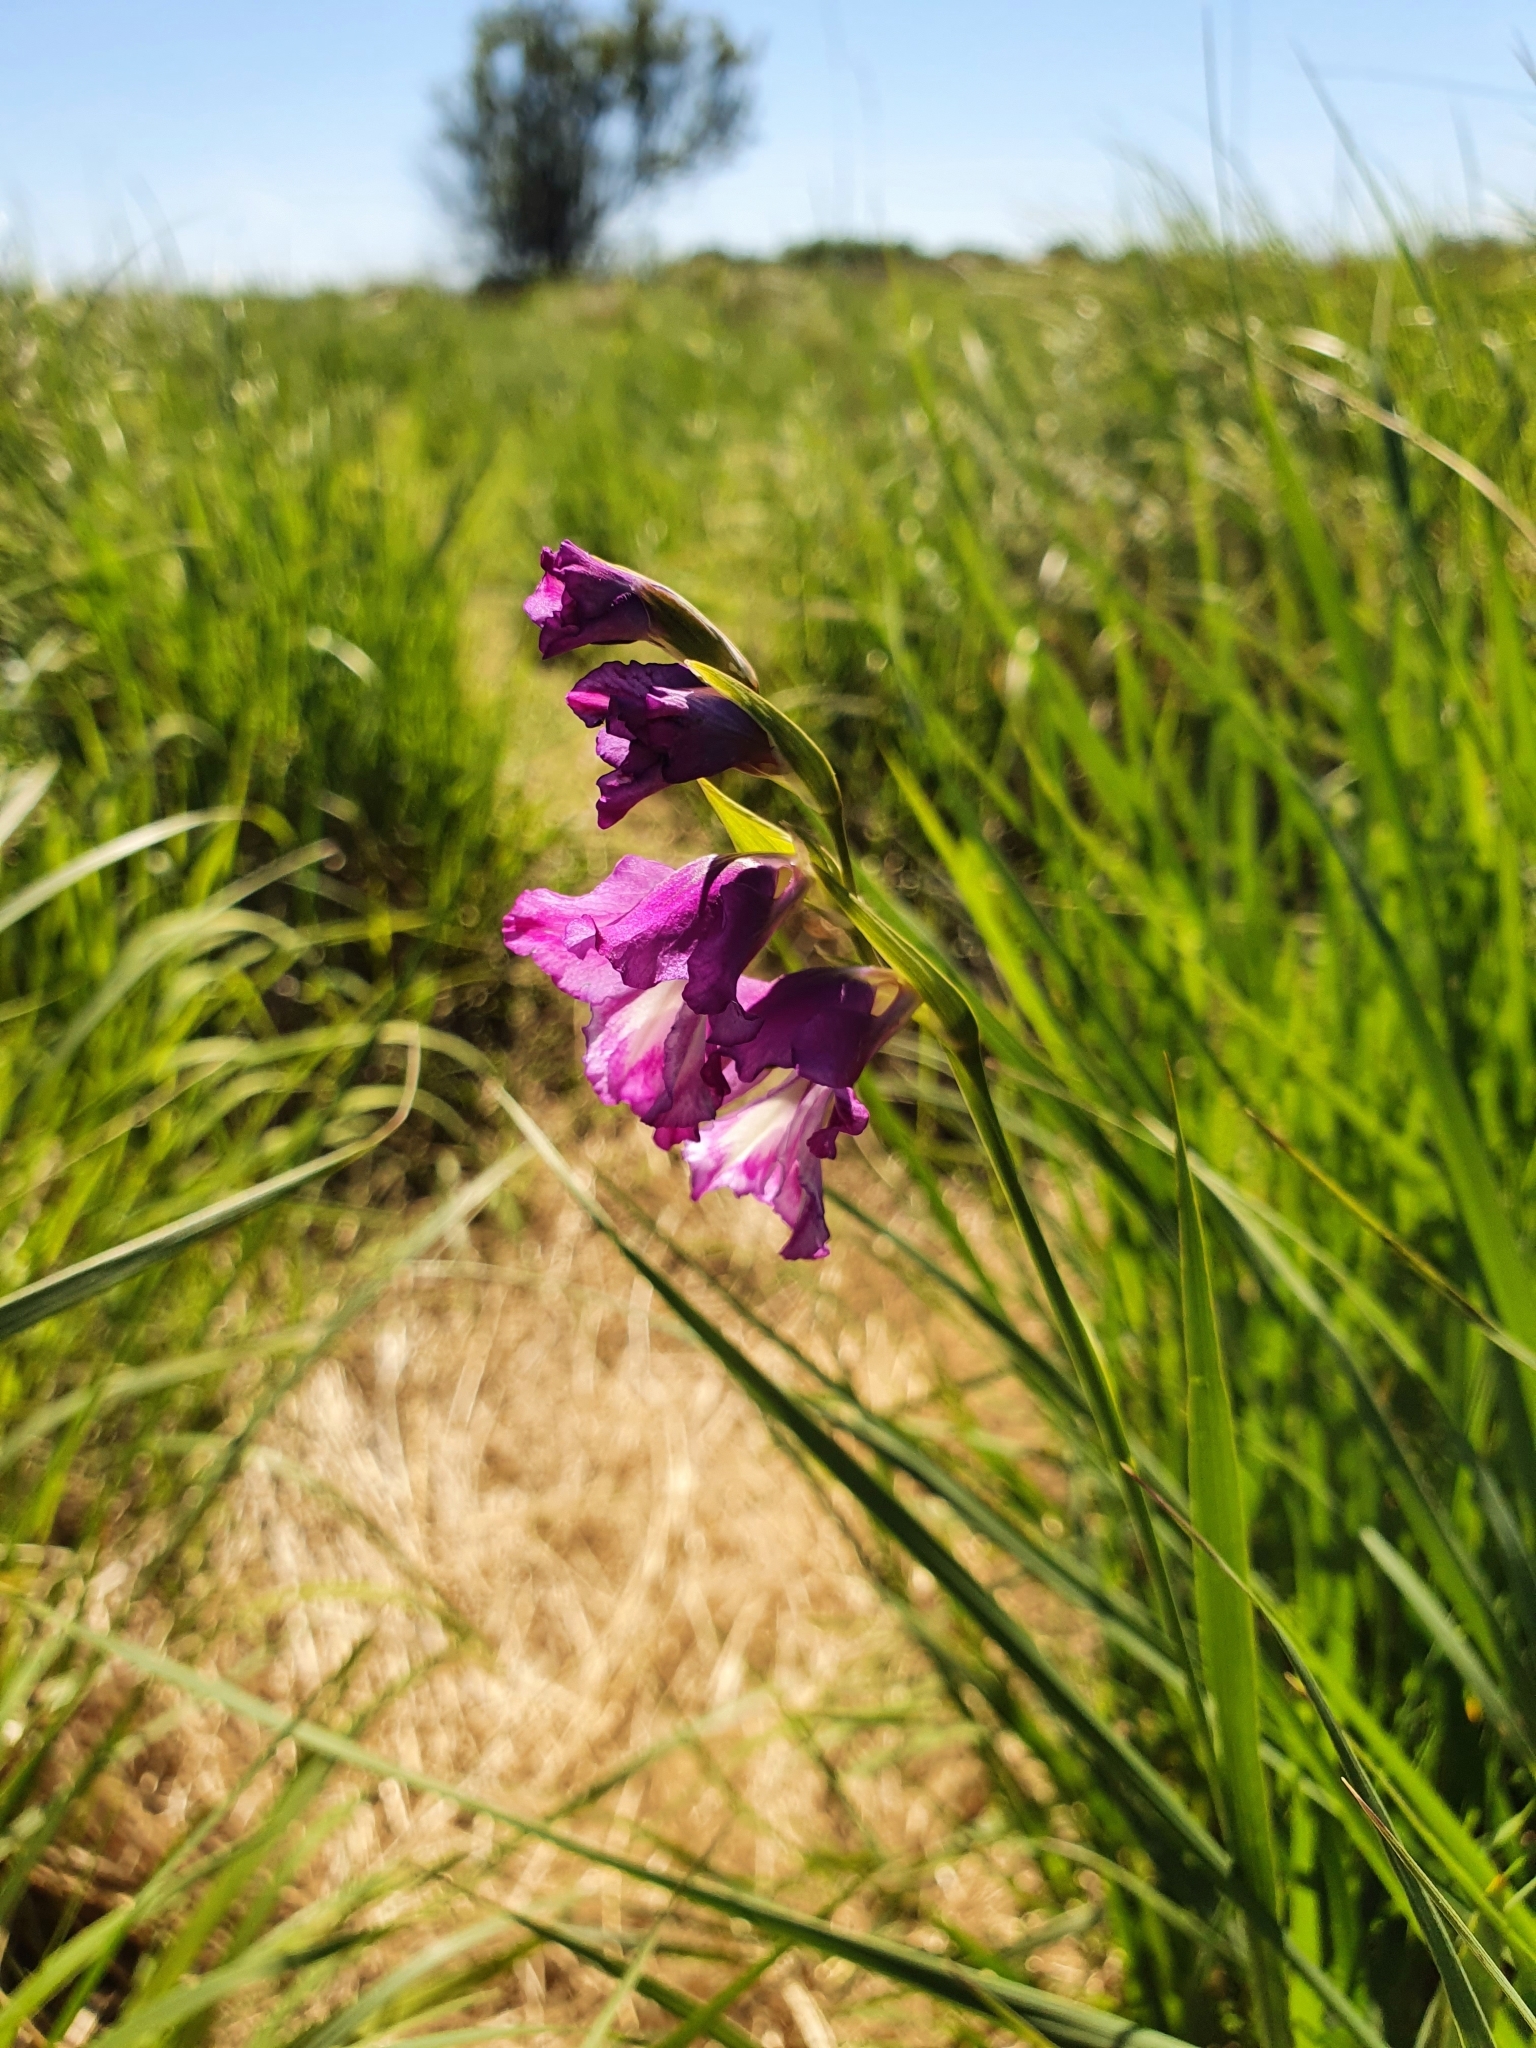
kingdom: Plantae
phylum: Tracheophyta
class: Liliopsida
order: Asparagales
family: Iridaceae
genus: Gladiolus
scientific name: Gladiolus tenuis
